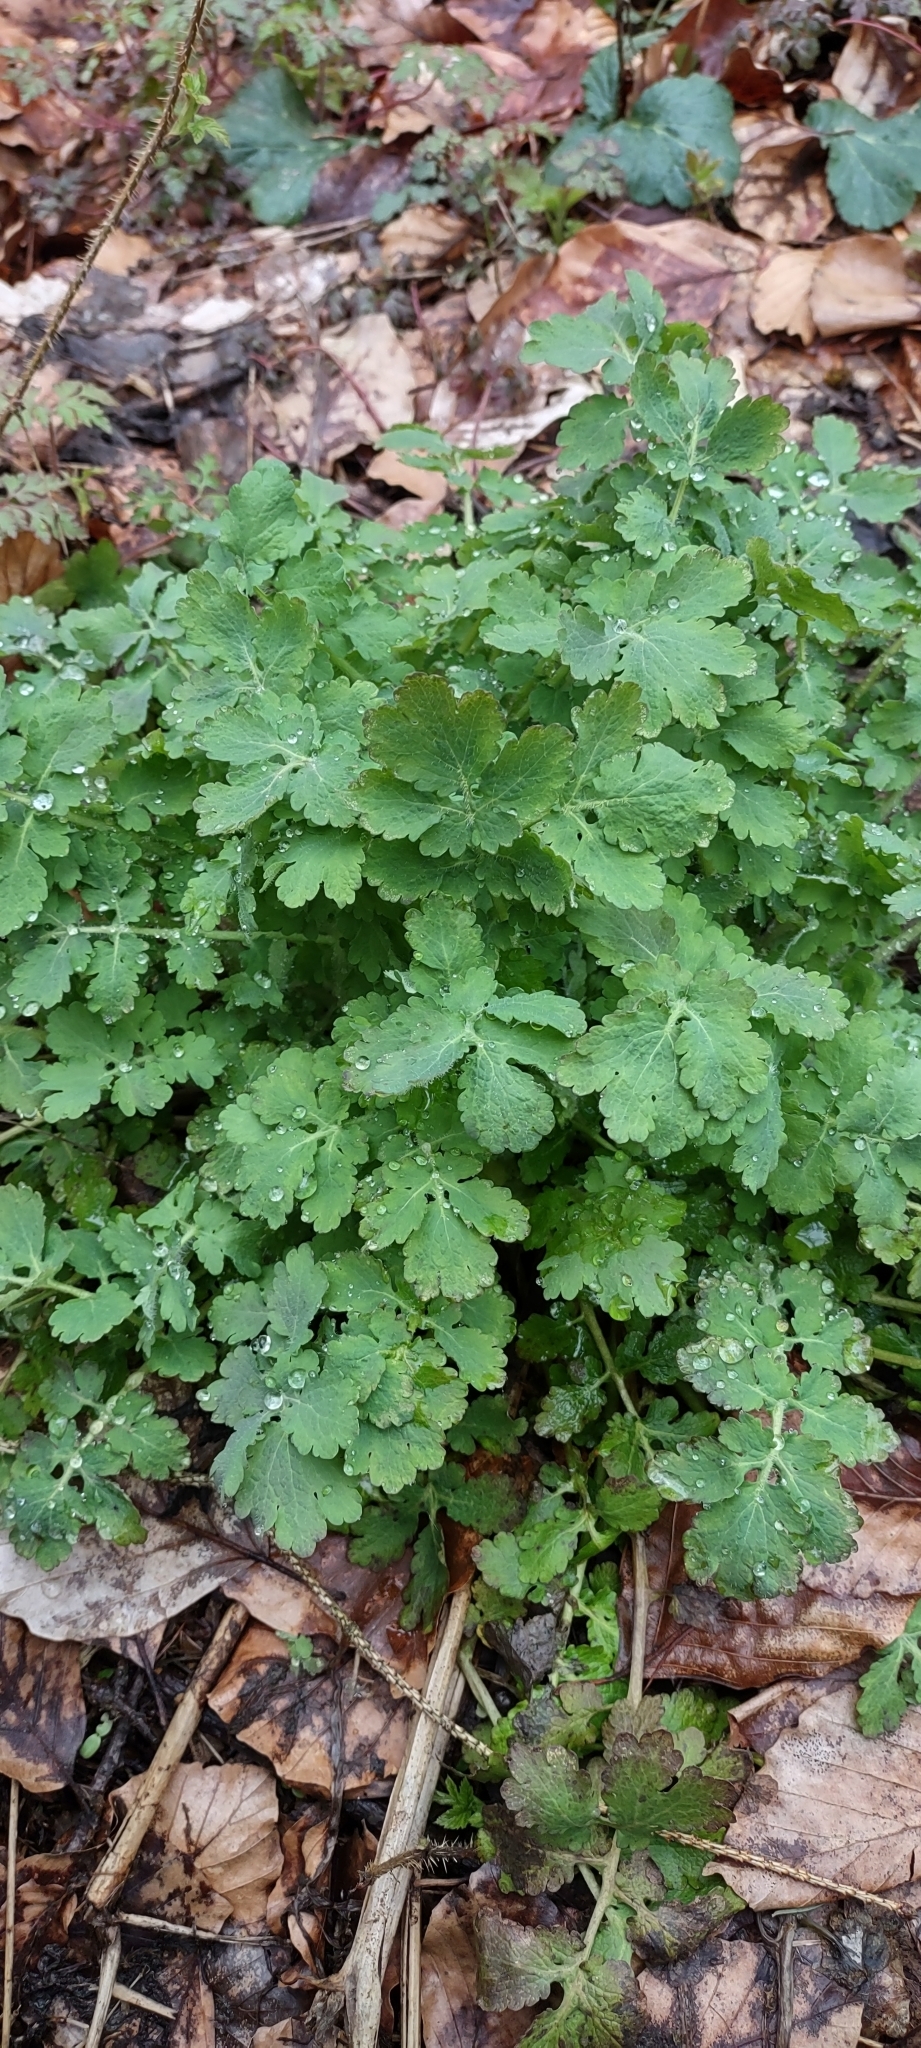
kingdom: Plantae
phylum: Tracheophyta
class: Magnoliopsida
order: Ranunculales
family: Papaveraceae
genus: Chelidonium
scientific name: Chelidonium majus
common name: Greater celandine
